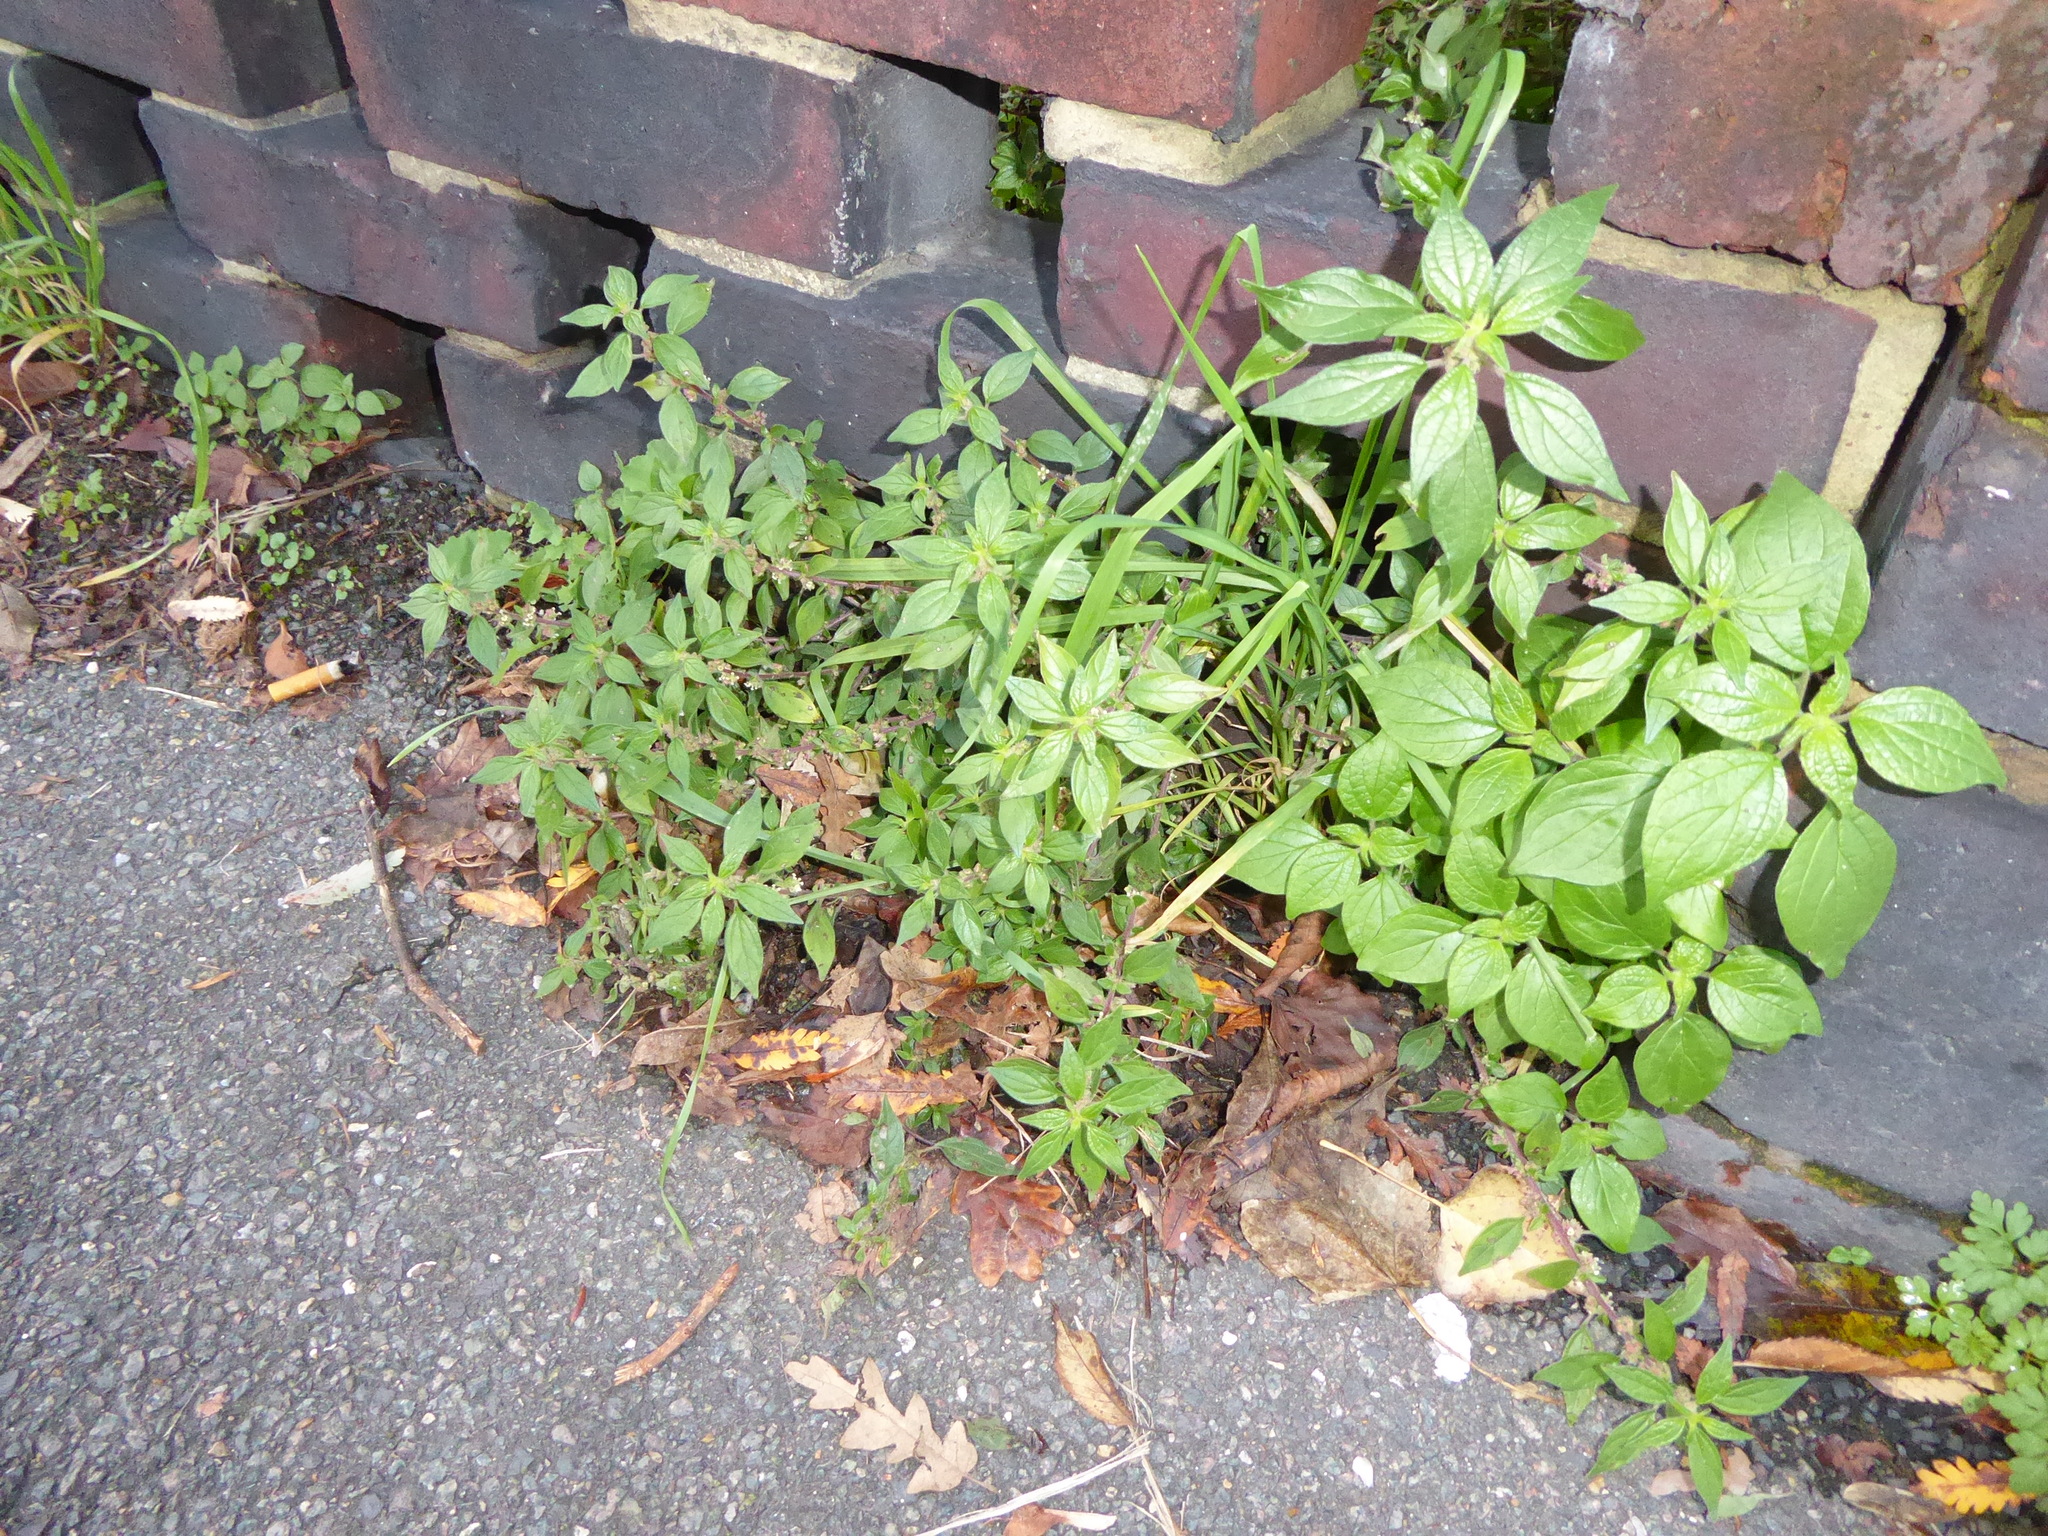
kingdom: Plantae
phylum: Tracheophyta
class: Magnoliopsida
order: Rosales
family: Urticaceae
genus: Parietaria
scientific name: Parietaria judaica
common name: Pellitory-of-the-wall
